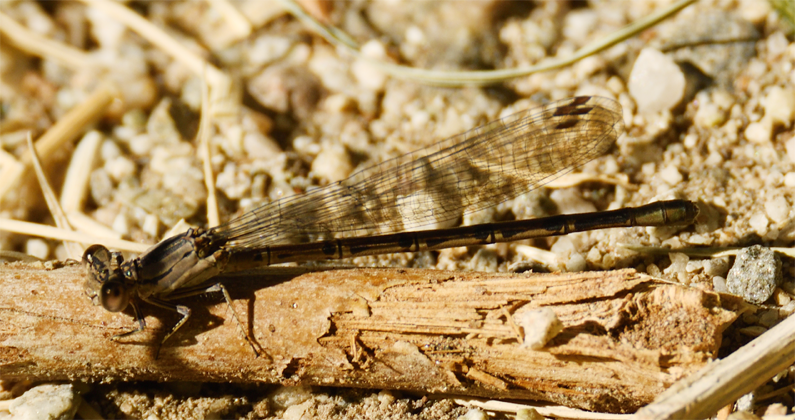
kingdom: Animalia
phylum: Arthropoda
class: Insecta
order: Odonata
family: Coenagrionidae
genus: Argia
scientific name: Argia vivida
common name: Vivid dancer
